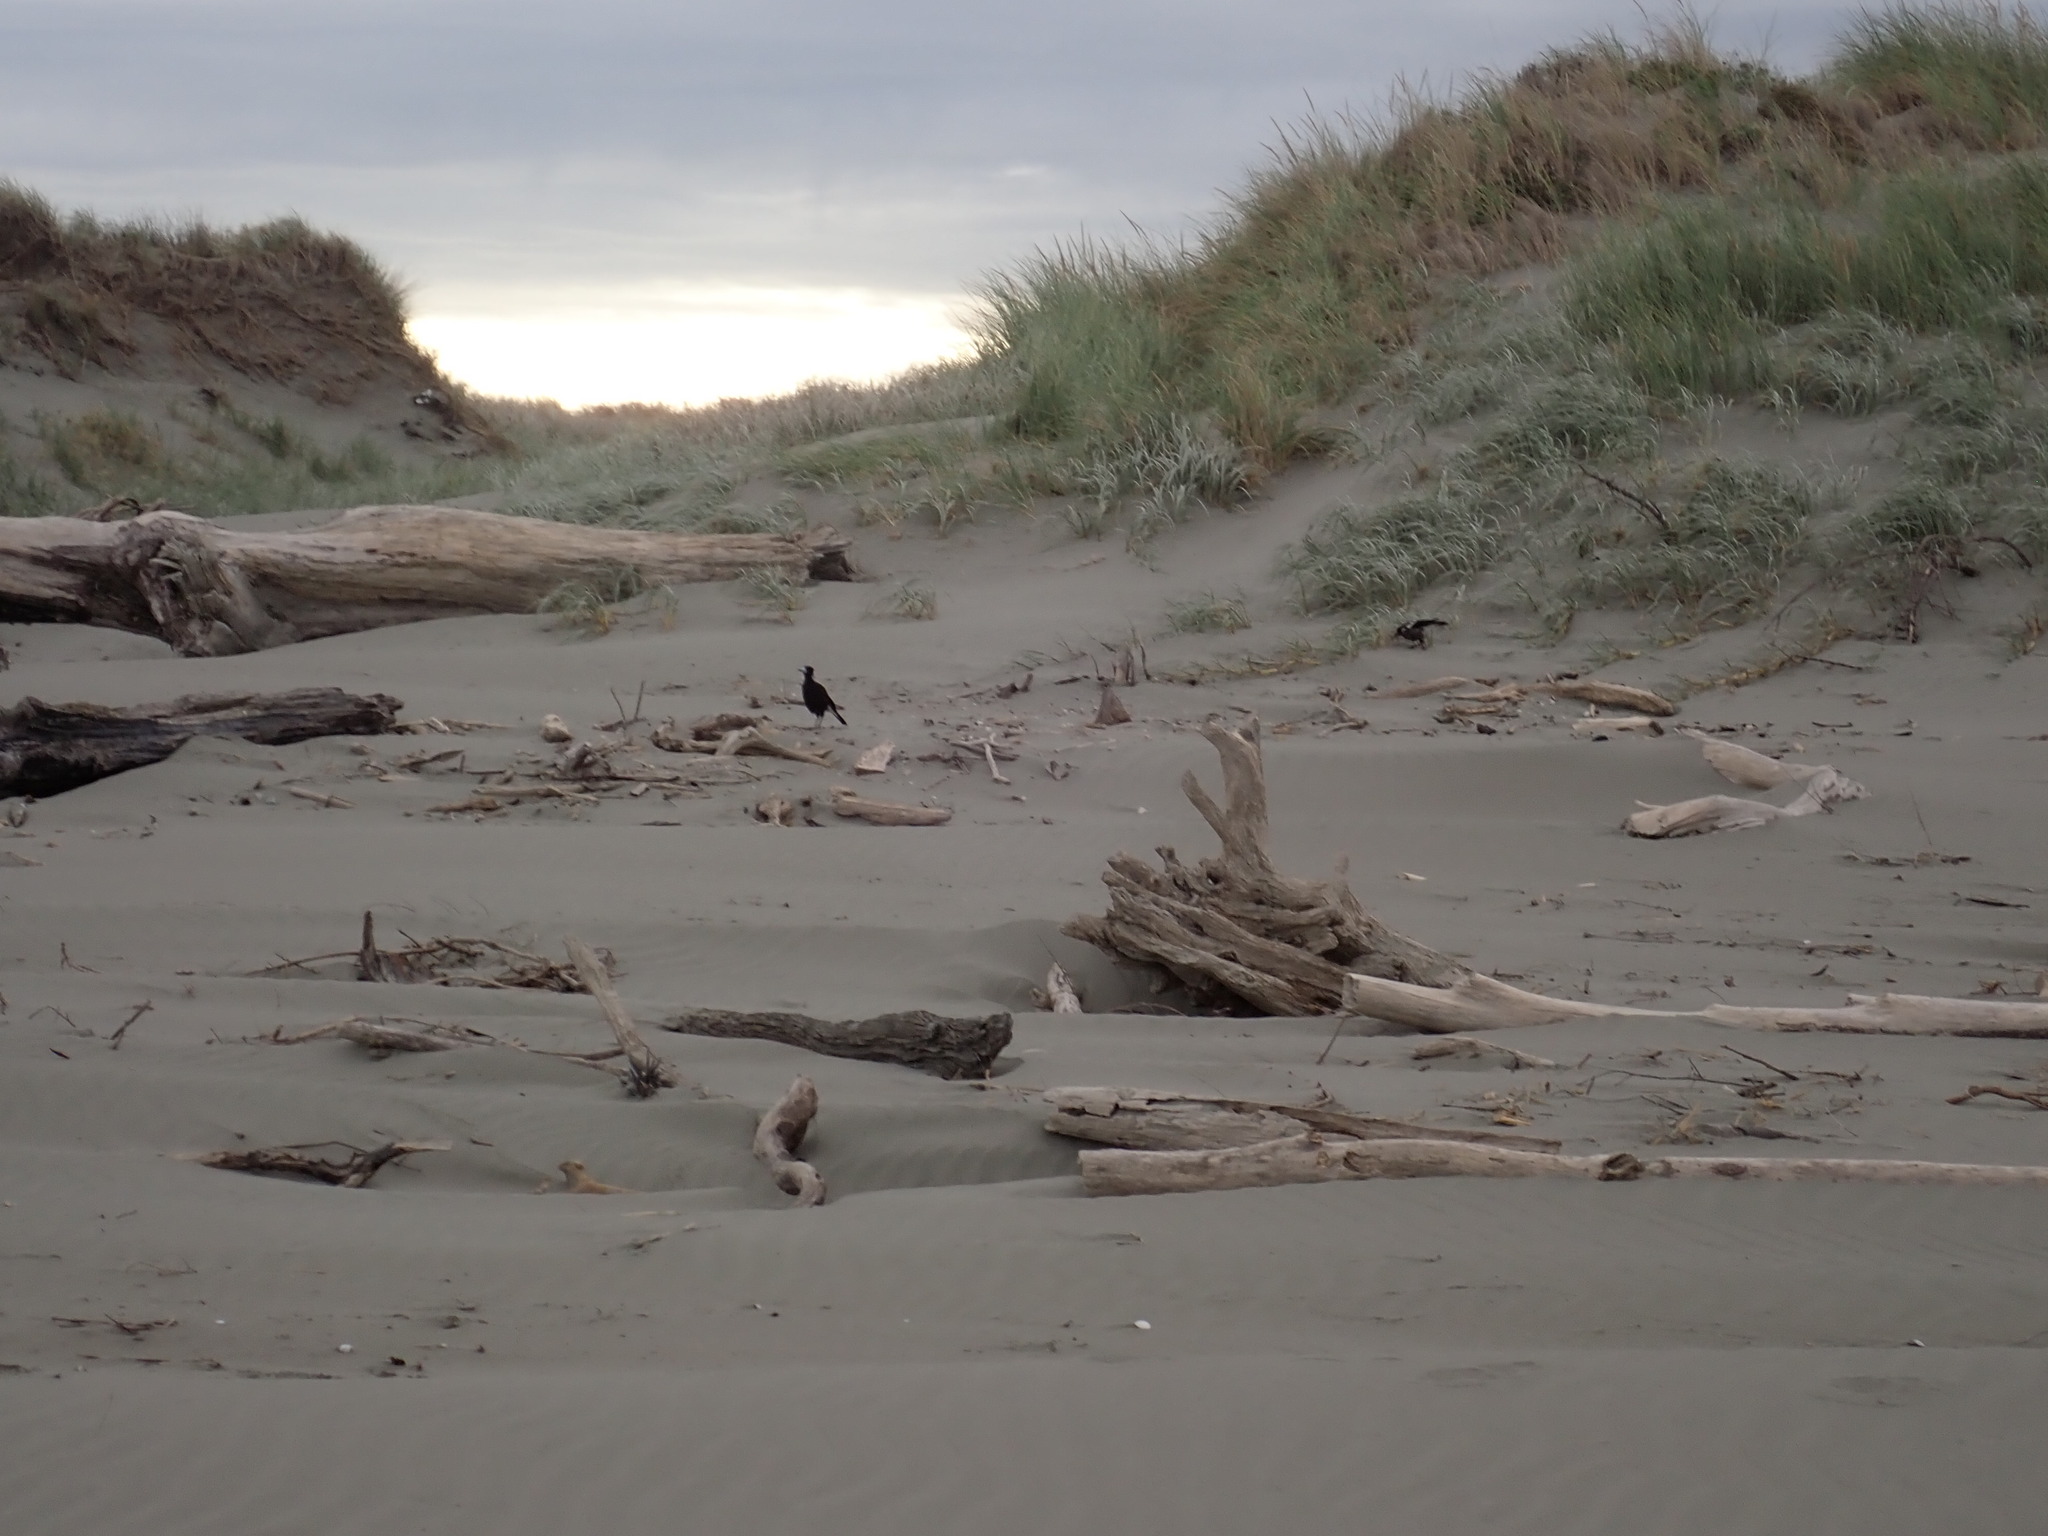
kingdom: Animalia
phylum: Chordata
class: Aves
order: Passeriformes
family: Cracticidae
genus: Gymnorhina
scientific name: Gymnorhina tibicen
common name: Australian magpie
